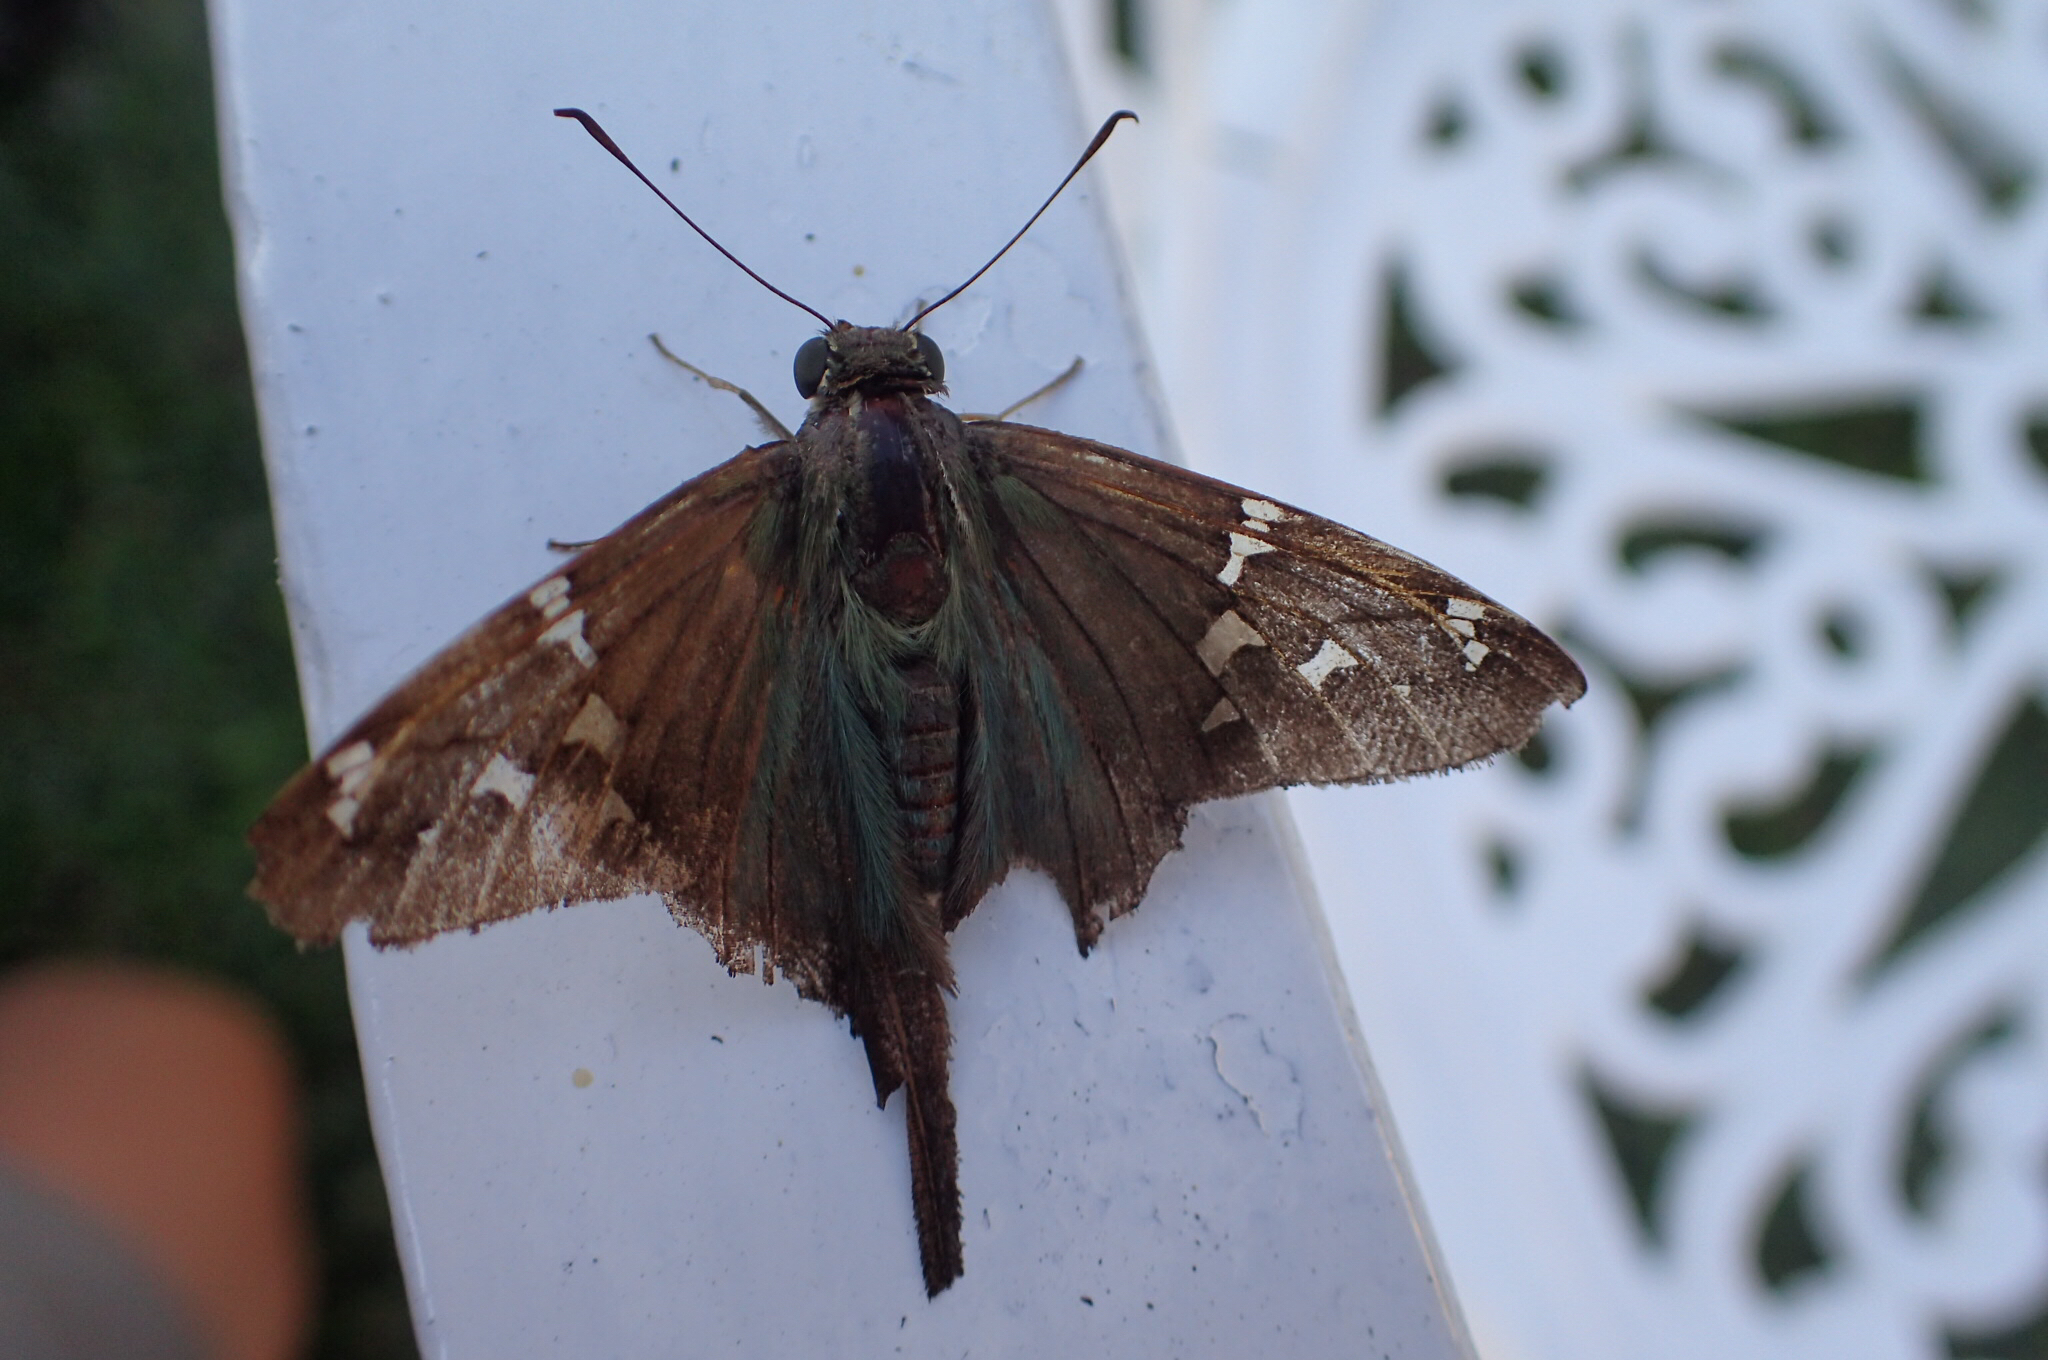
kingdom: Animalia
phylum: Arthropoda
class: Insecta
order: Lepidoptera
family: Hesperiidae
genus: Urbanus
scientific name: Urbanus proteus
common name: Long-tailed skipper
